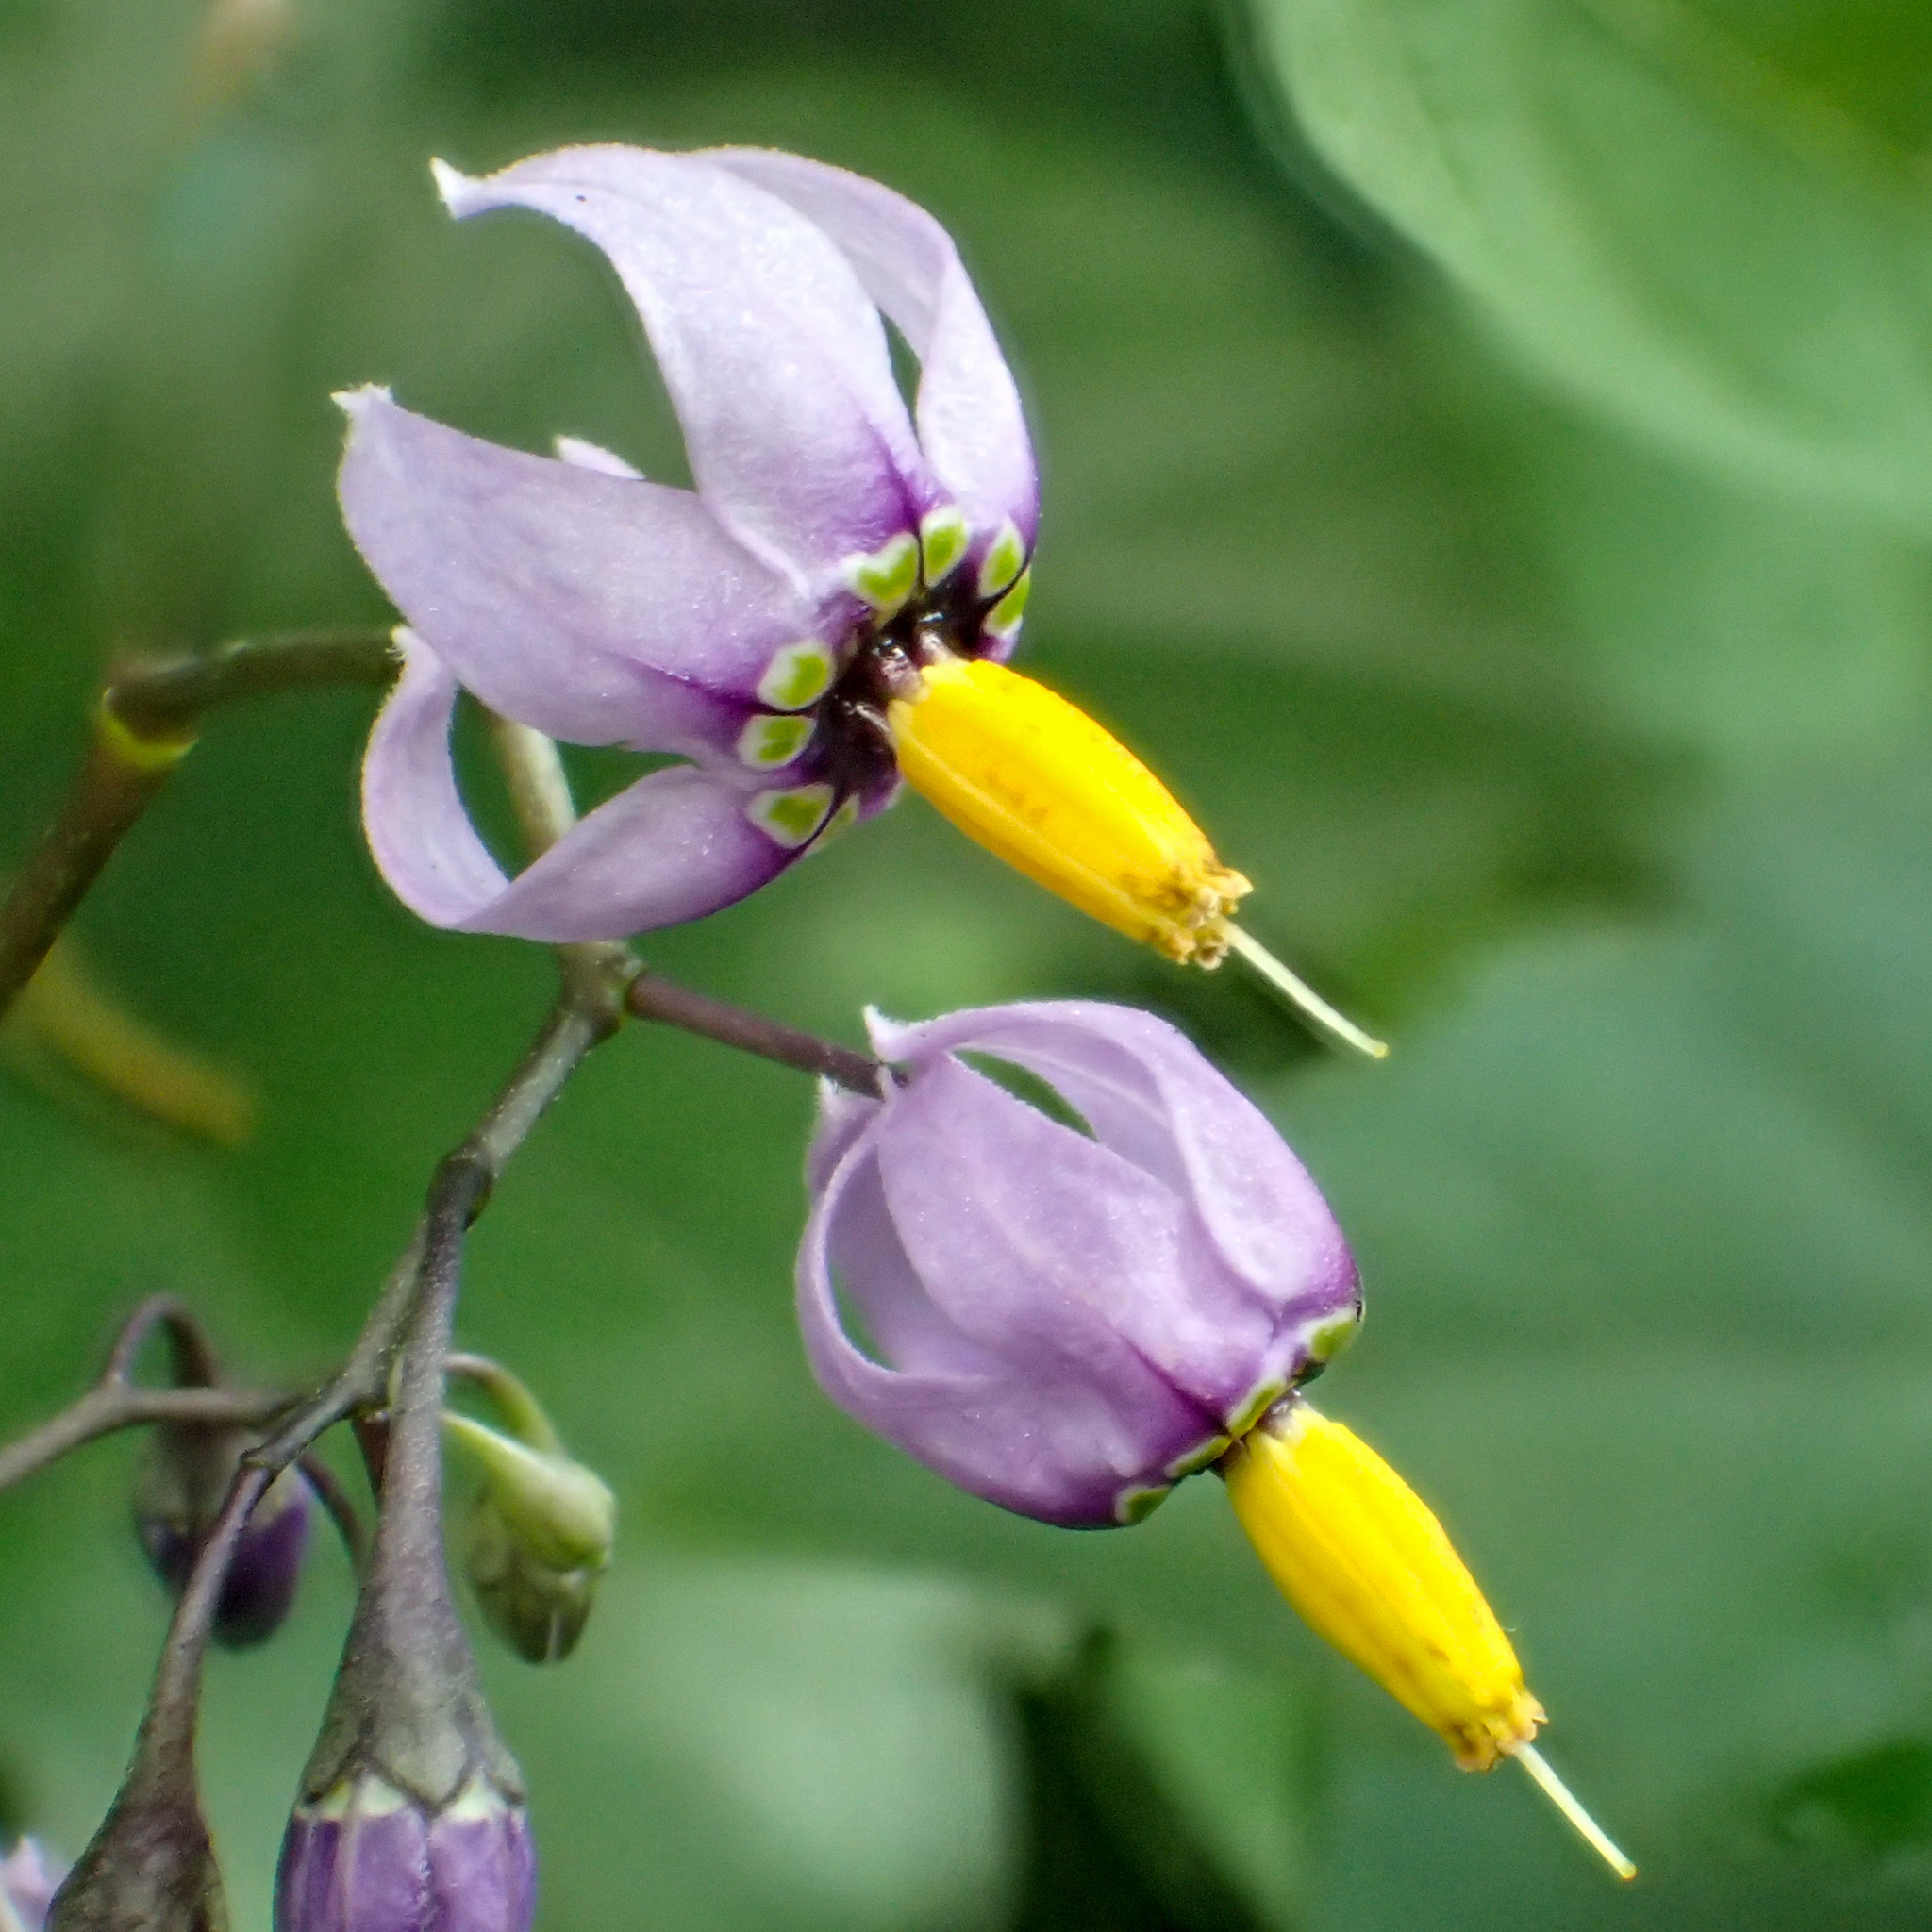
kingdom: Plantae
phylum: Tracheophyta
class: Magnoliopsida
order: Solanales
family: Solanaceae
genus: Solanum
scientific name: Solanum dulcamara
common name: Climbing nightshade
